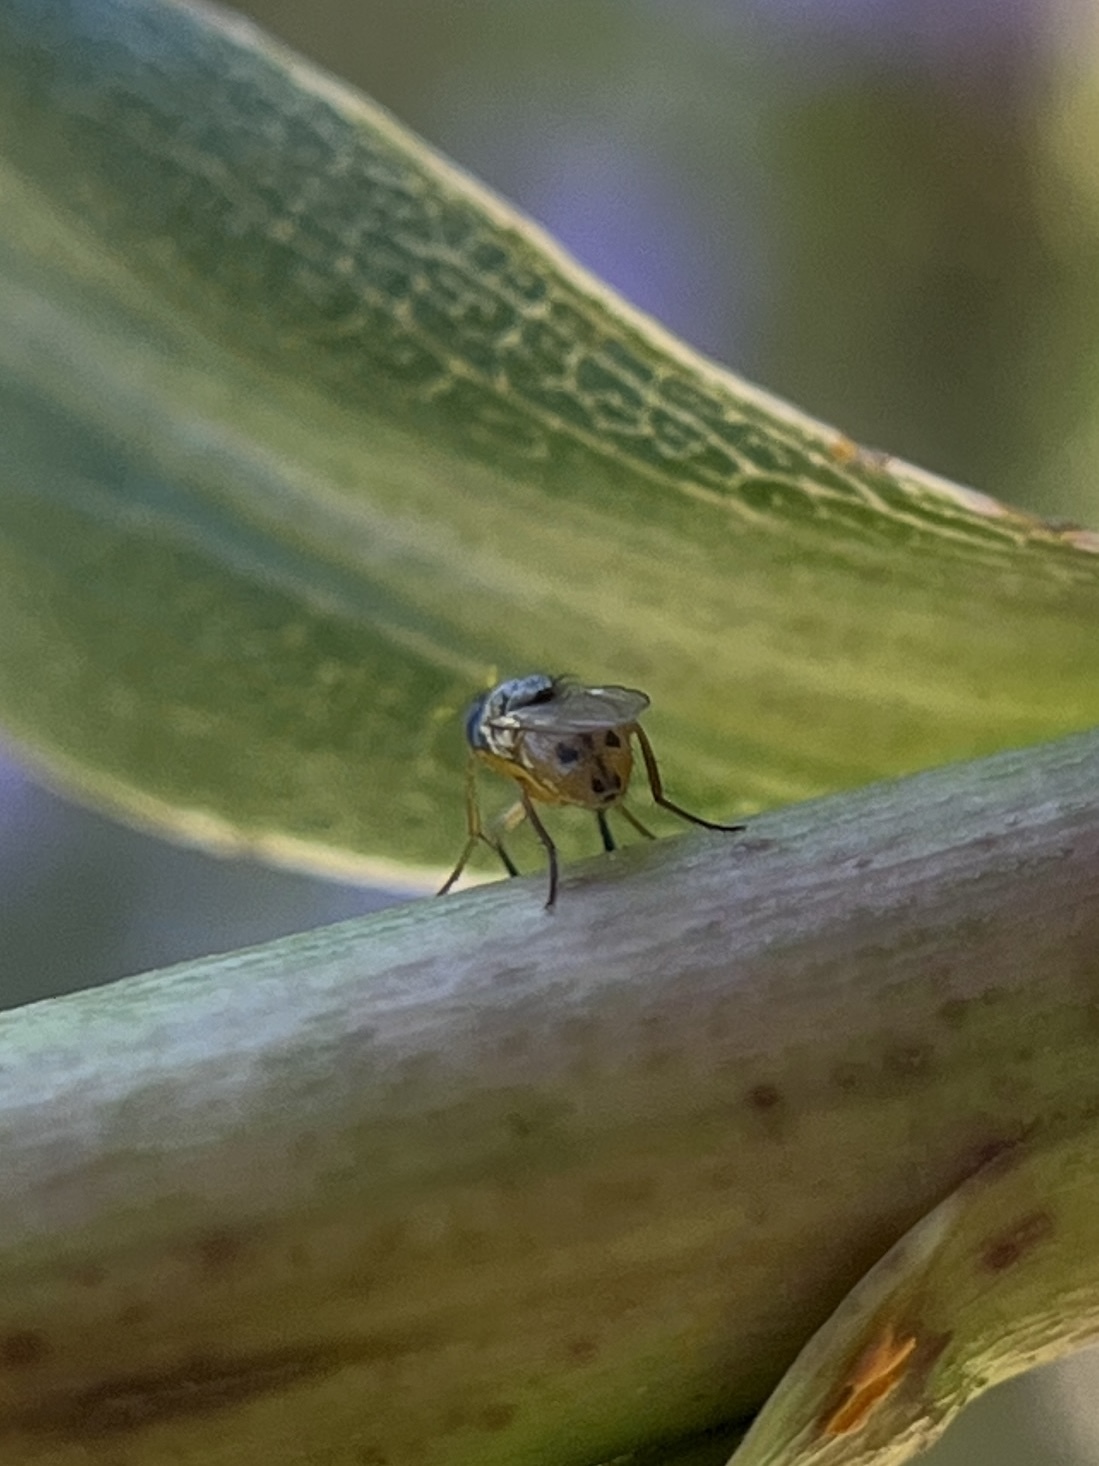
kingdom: Animalia
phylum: Arthropoda
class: Insecta
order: Diptera
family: Muscidae
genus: Atherigona
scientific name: Atherigona reversura
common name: Bermudagrass stem maggot
